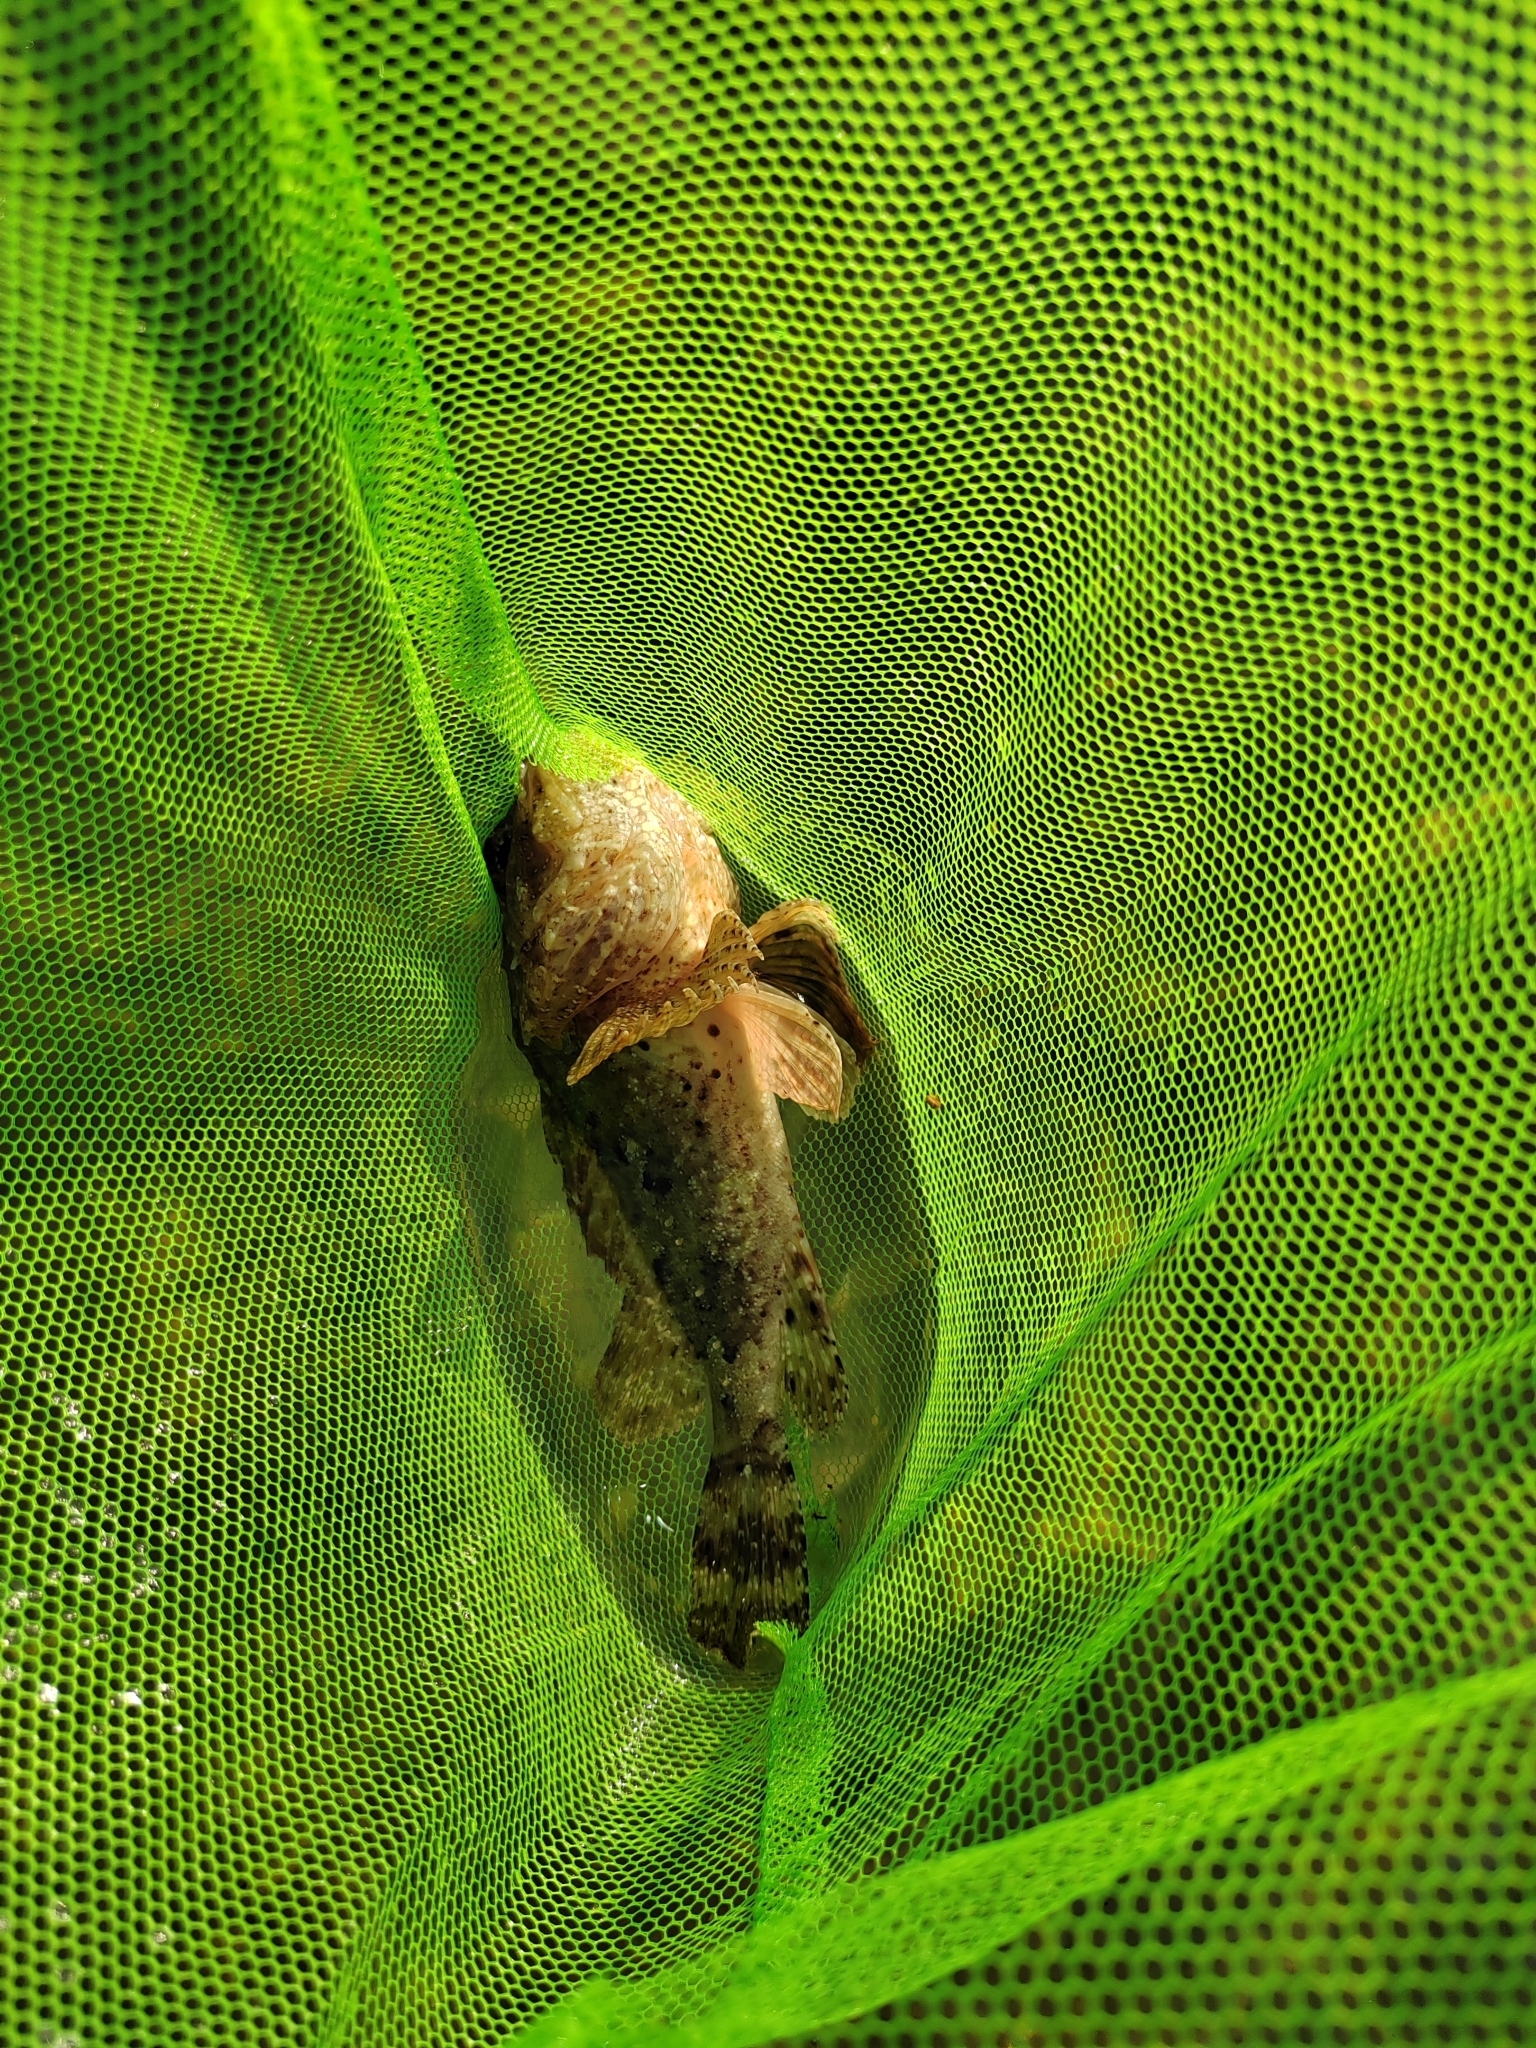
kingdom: Animalia
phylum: Chordata
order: Scorpaeniformes
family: Scorpaenidae
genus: Scorpaena
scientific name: Scorpaena porcus
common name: Black scorpionfish
